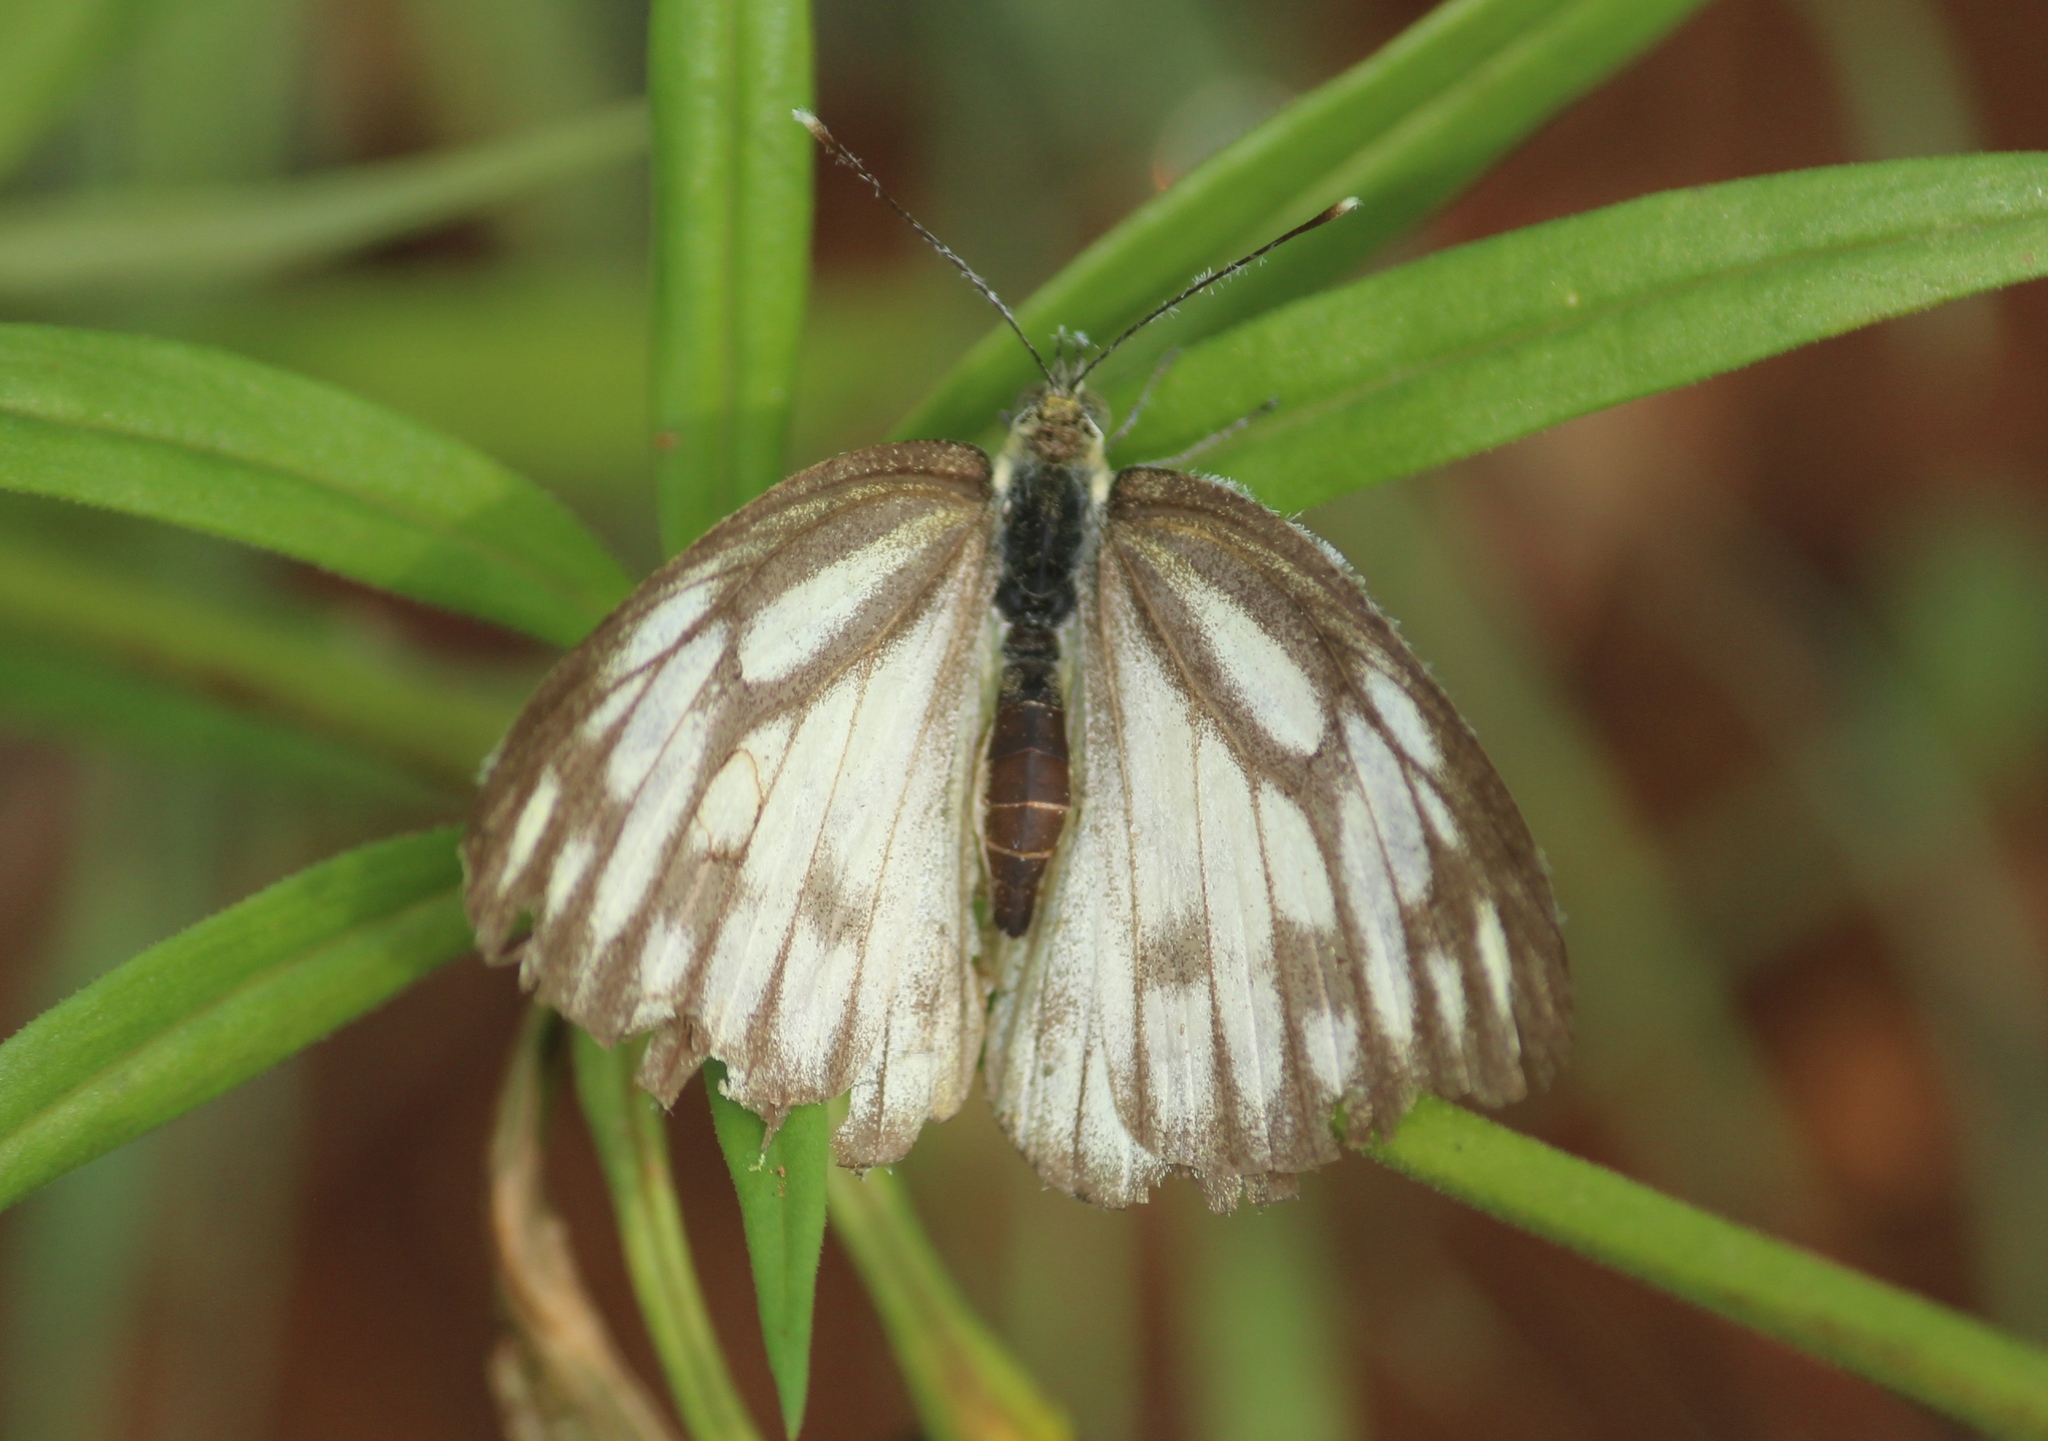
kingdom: Animalia
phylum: Arthropoda
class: Insecta
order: Lepidoptera
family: Pieridae
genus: Cepora
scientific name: Cepora nerissa
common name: Common gull
